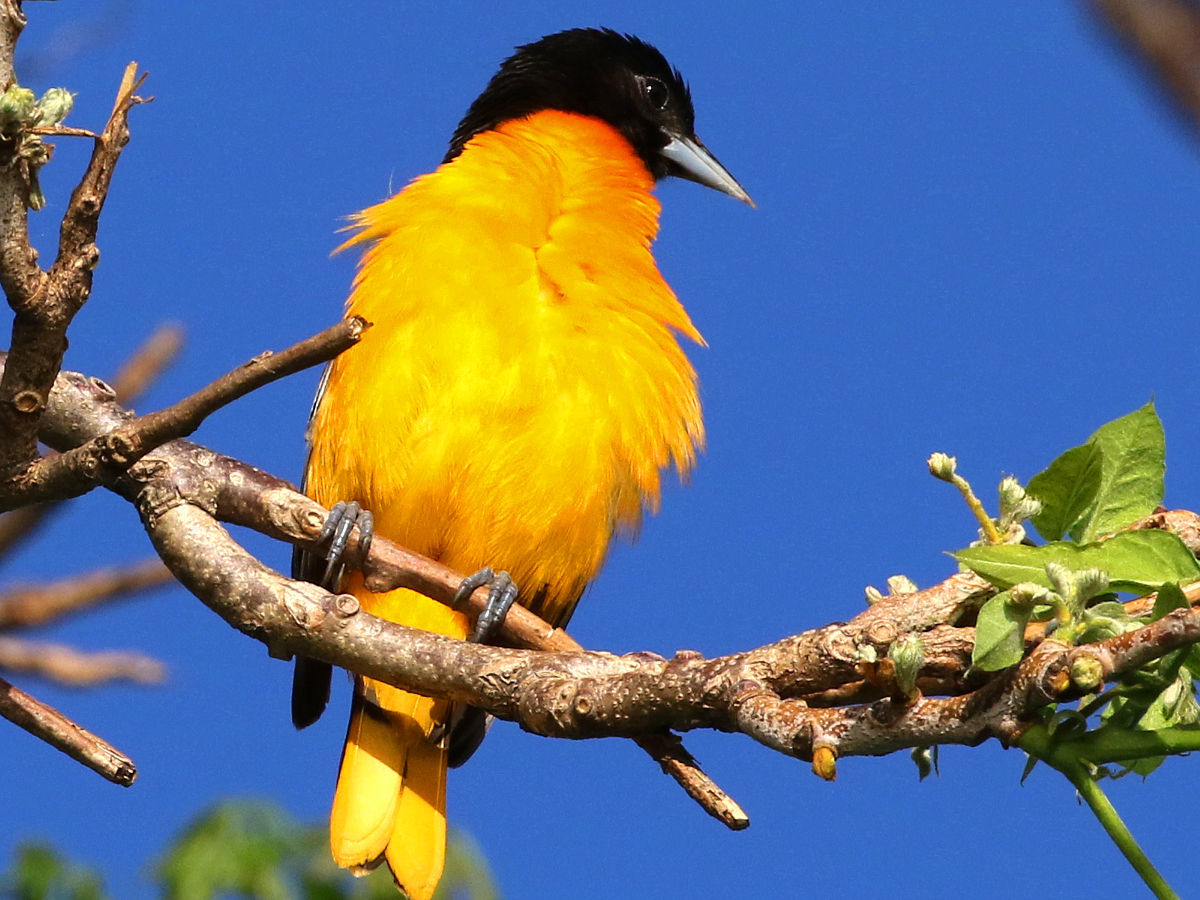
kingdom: Animalia
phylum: Chordata
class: Aves
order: Passeriformes
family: Icteridae
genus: Icterus
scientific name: Icterus galbula
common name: Baltimore oriole
